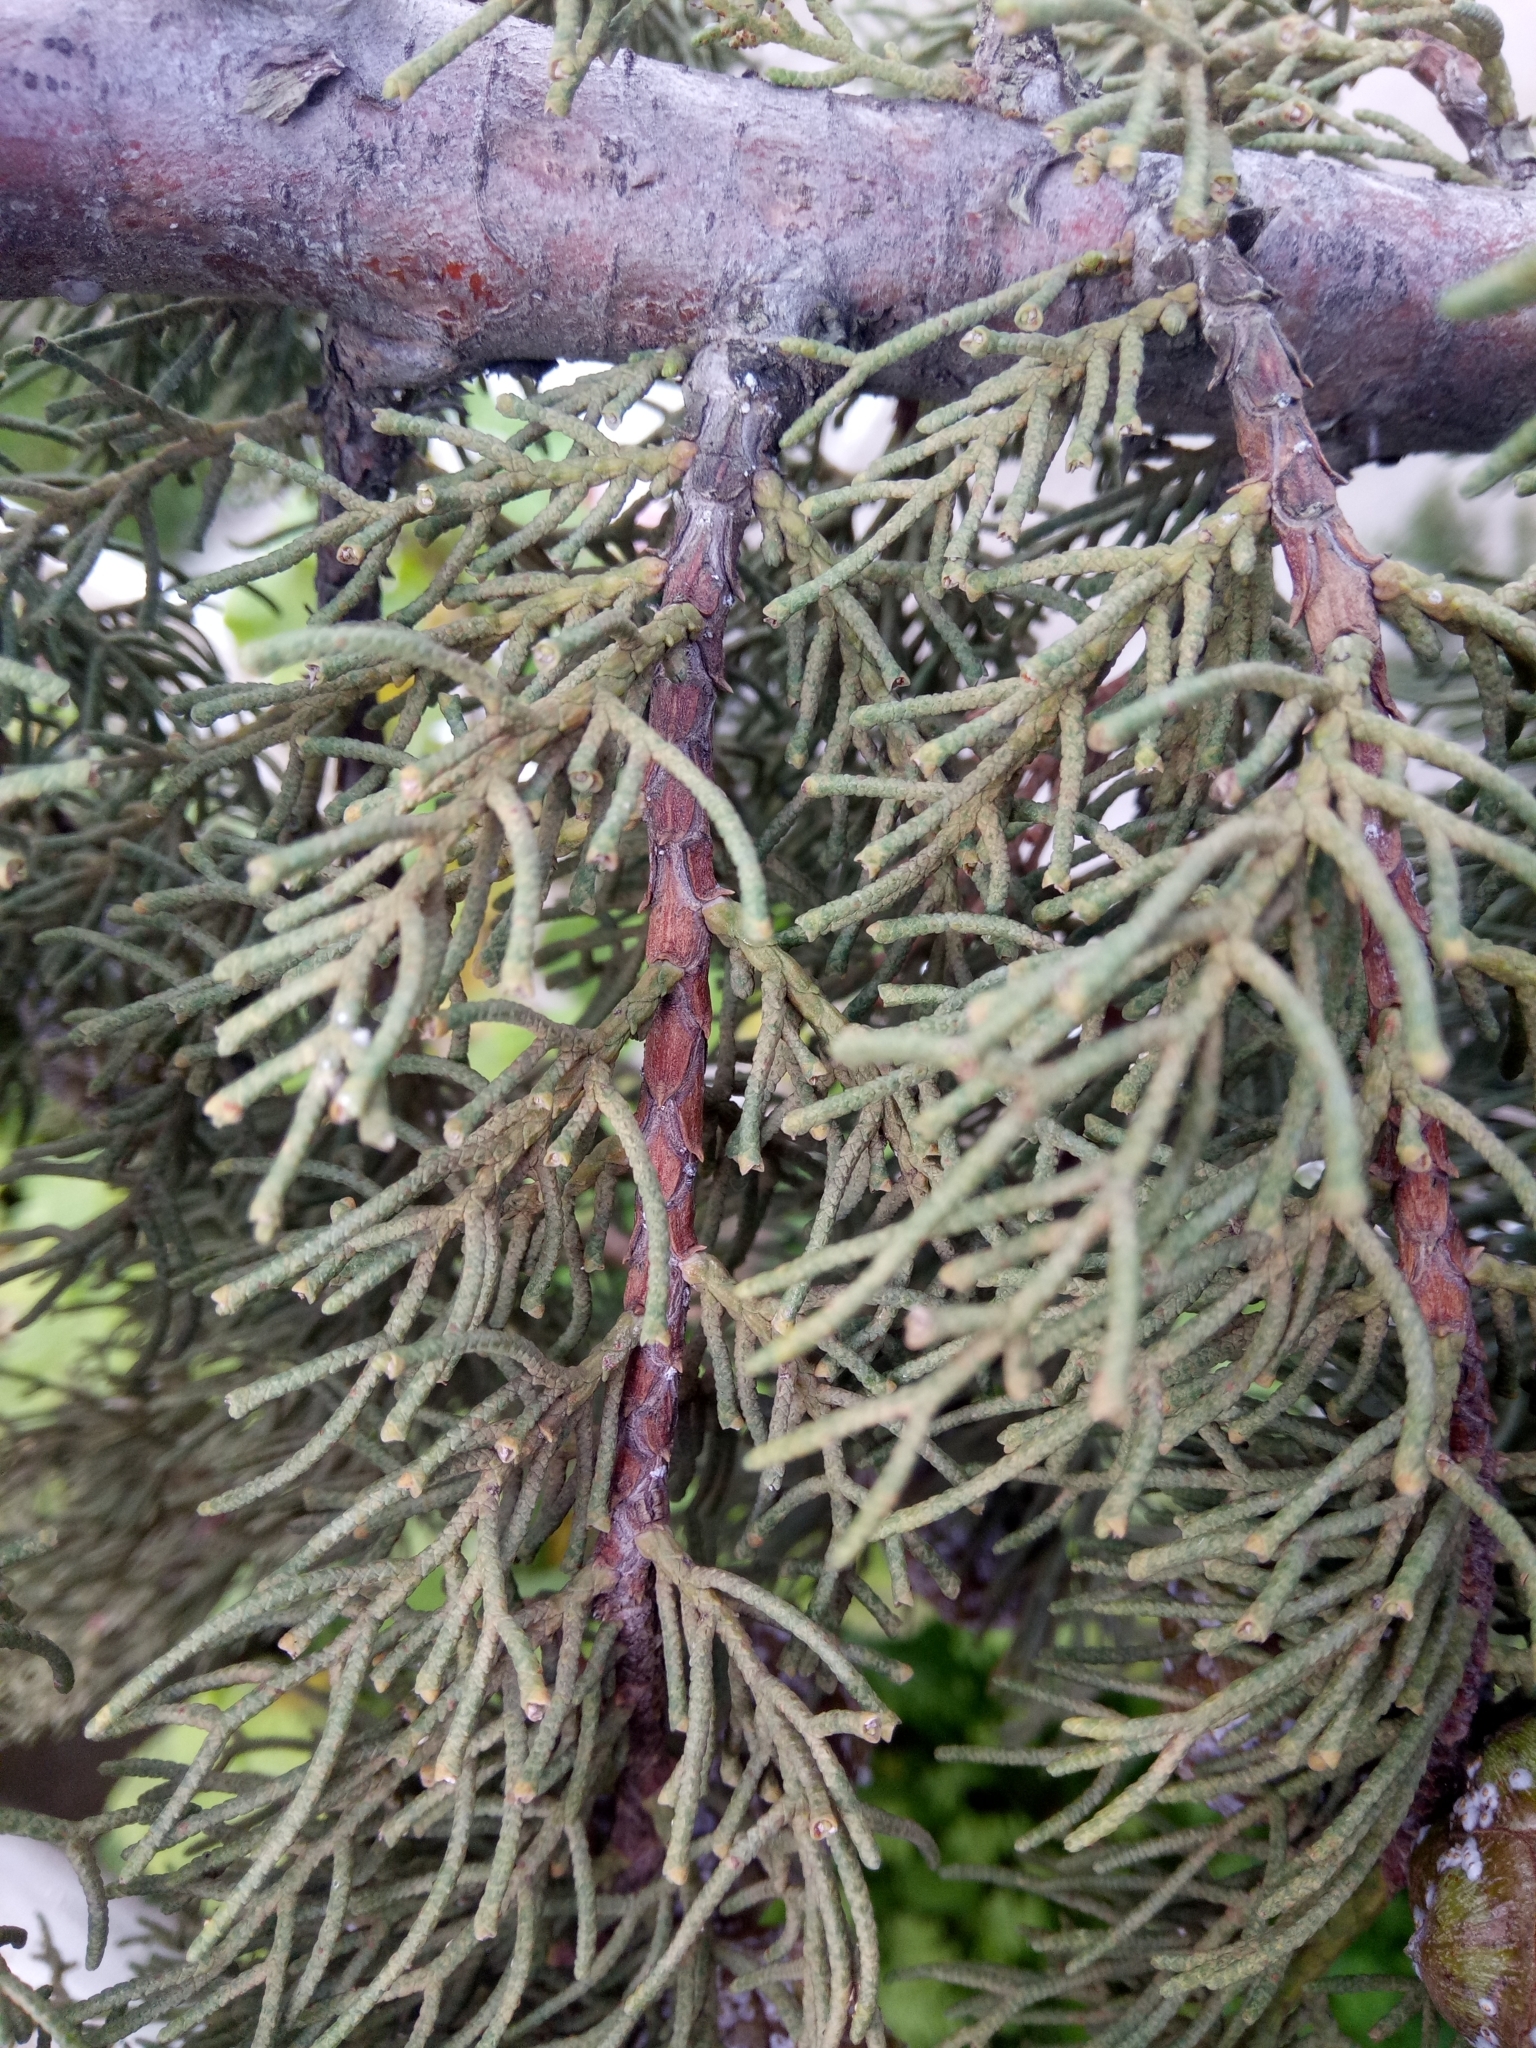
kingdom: Plantae
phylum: Tracheophyta
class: Pinopsida
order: Pinales
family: Cupressaceae
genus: Cupressus
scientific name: Cupressus sempervirens
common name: Italian cypress
